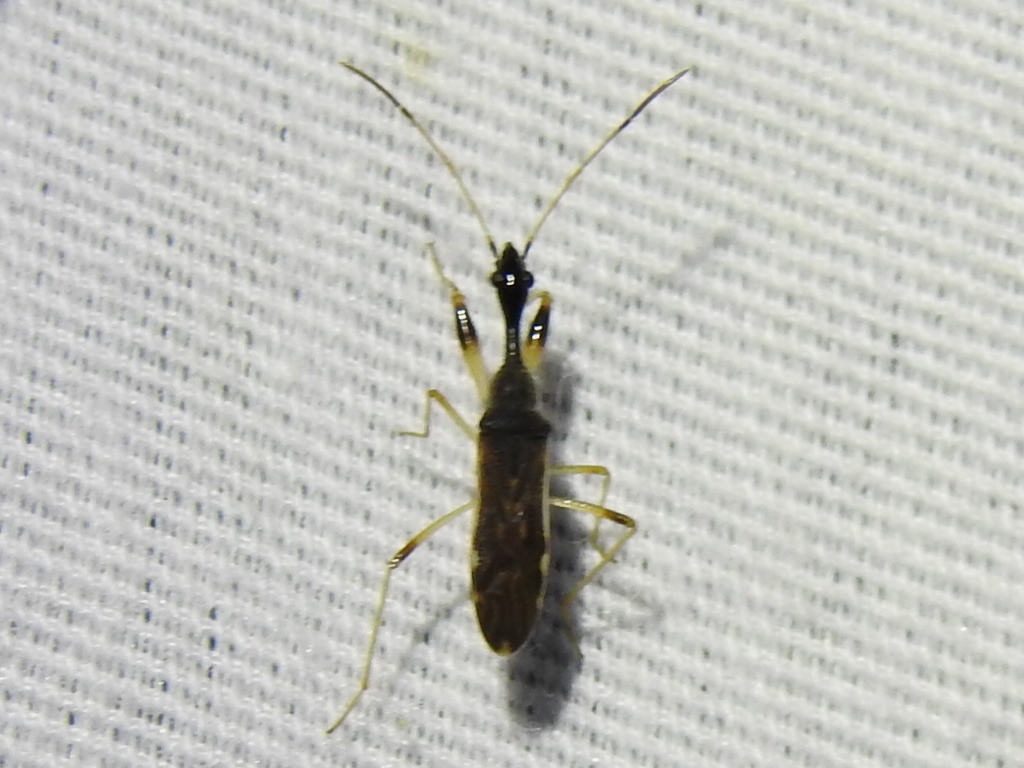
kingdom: Animalia
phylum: Arthropoda
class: Insecta
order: Hemiptera
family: Rhyparochromidae
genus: Myodocha
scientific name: Myodocha serripes
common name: Long-necked seed bug
